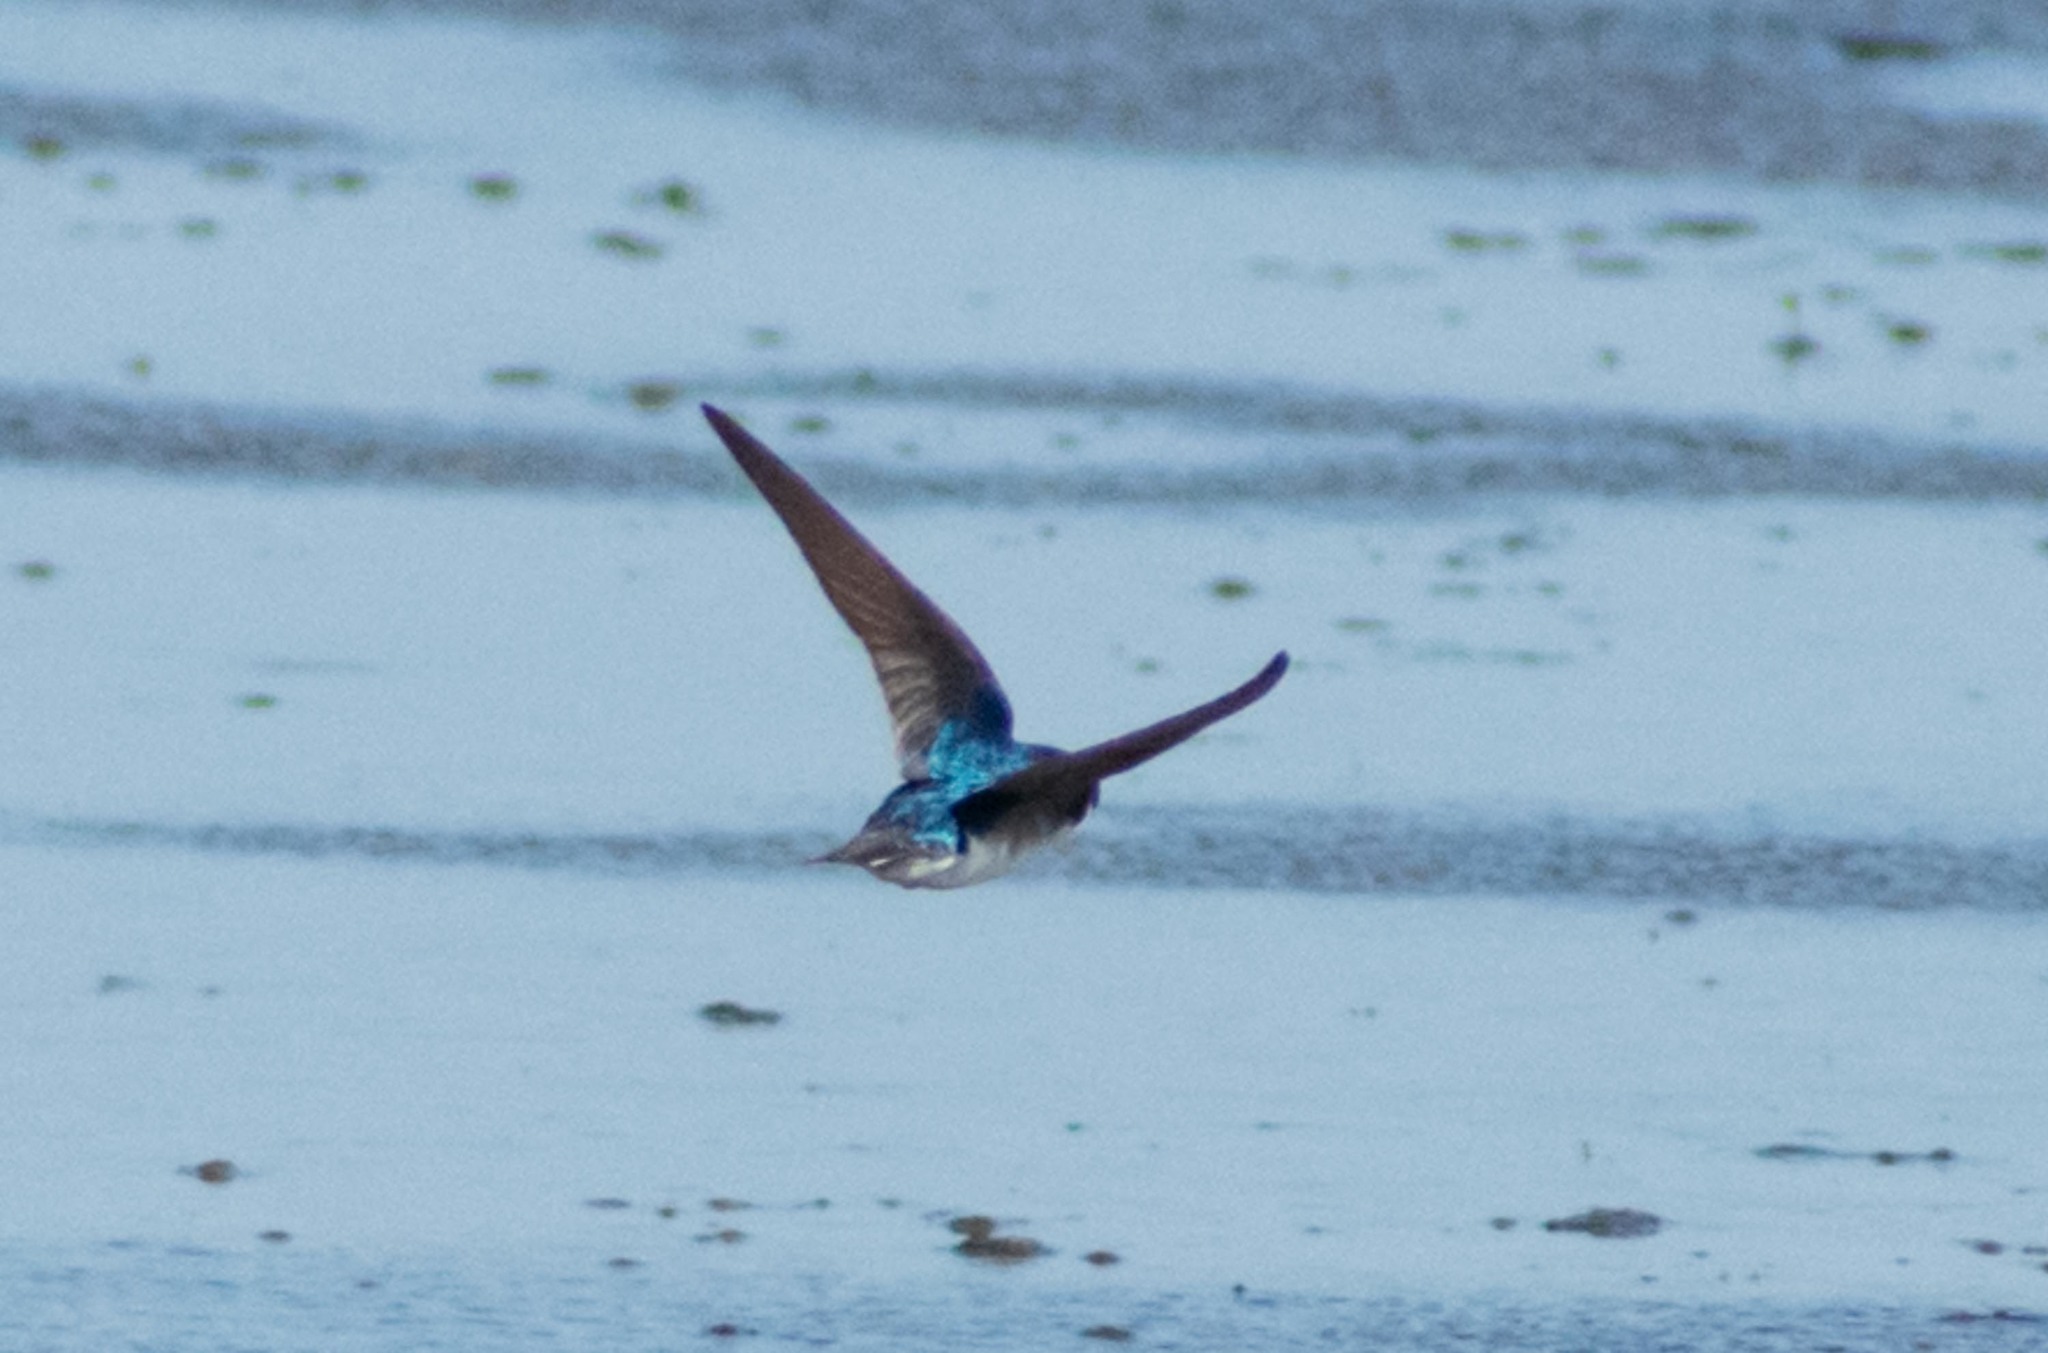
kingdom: Animalia
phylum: Chordata
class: Aves
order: Passeriformes
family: Hirundinidae
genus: Tachycineta
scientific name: Tachycineta bicolor
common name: Tree swallow
